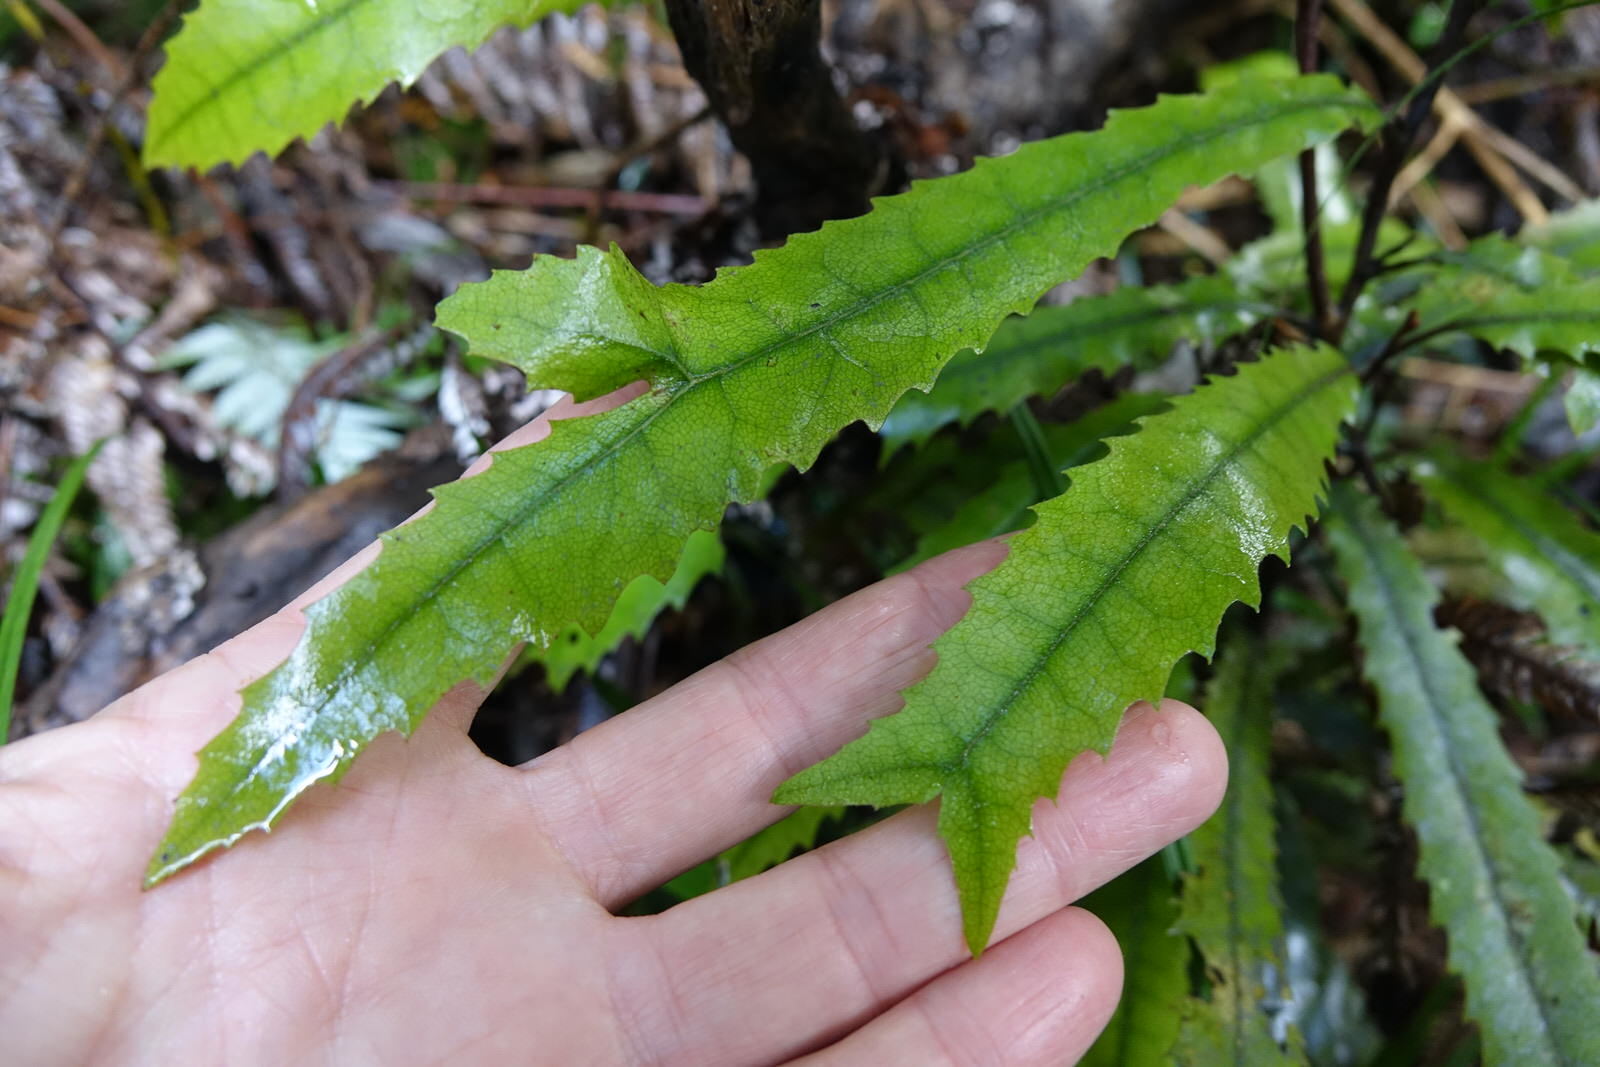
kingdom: Plantae
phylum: Tracheophyta
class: Magnoliopsida
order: Proteales
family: Proteaceae
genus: Knightia
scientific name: Knightia excelsa
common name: New zealand-honeysuckle
